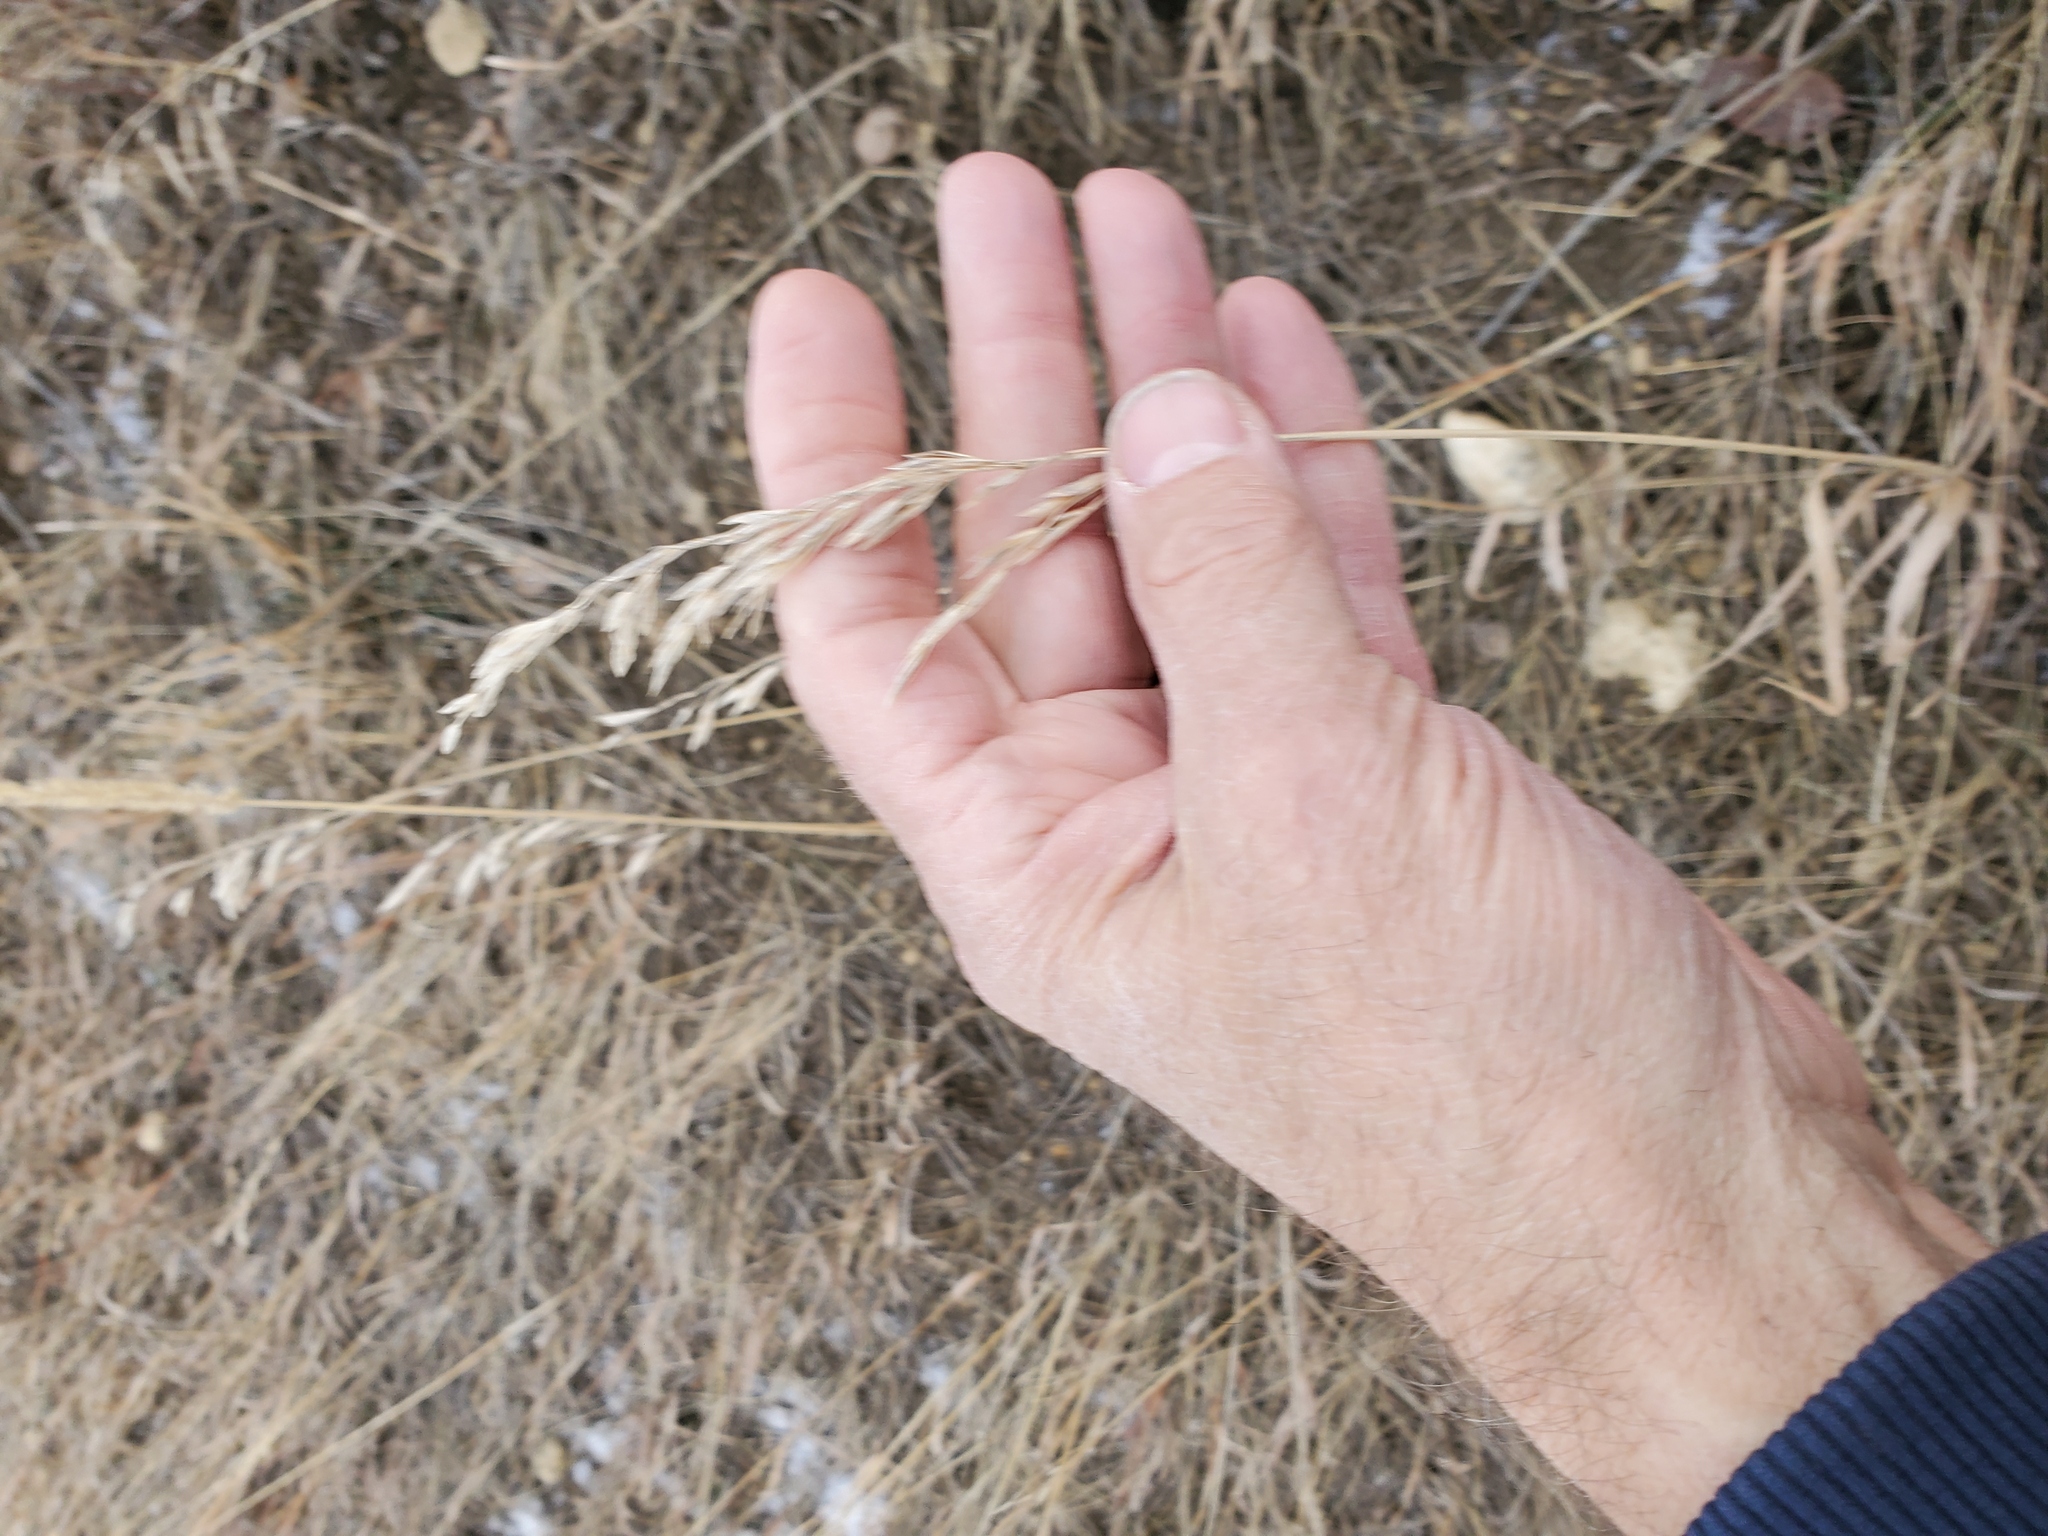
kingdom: Plantae
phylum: Tracheophyta
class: Liliopsida
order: Poales
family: Poaceae
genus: Bromus
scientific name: Bromus inermis
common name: Smooth brome
